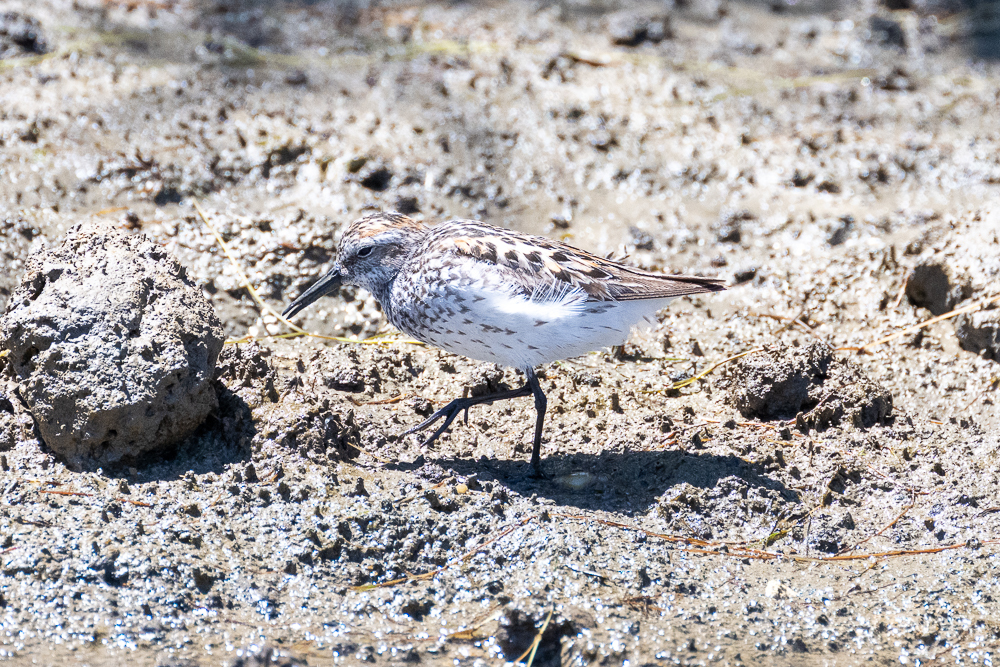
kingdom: Animalia
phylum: Chordata
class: Aves
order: Charadriiformes
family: Scolopacidae
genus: Calidris
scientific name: Calidris mauri
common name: Western sandpiper
